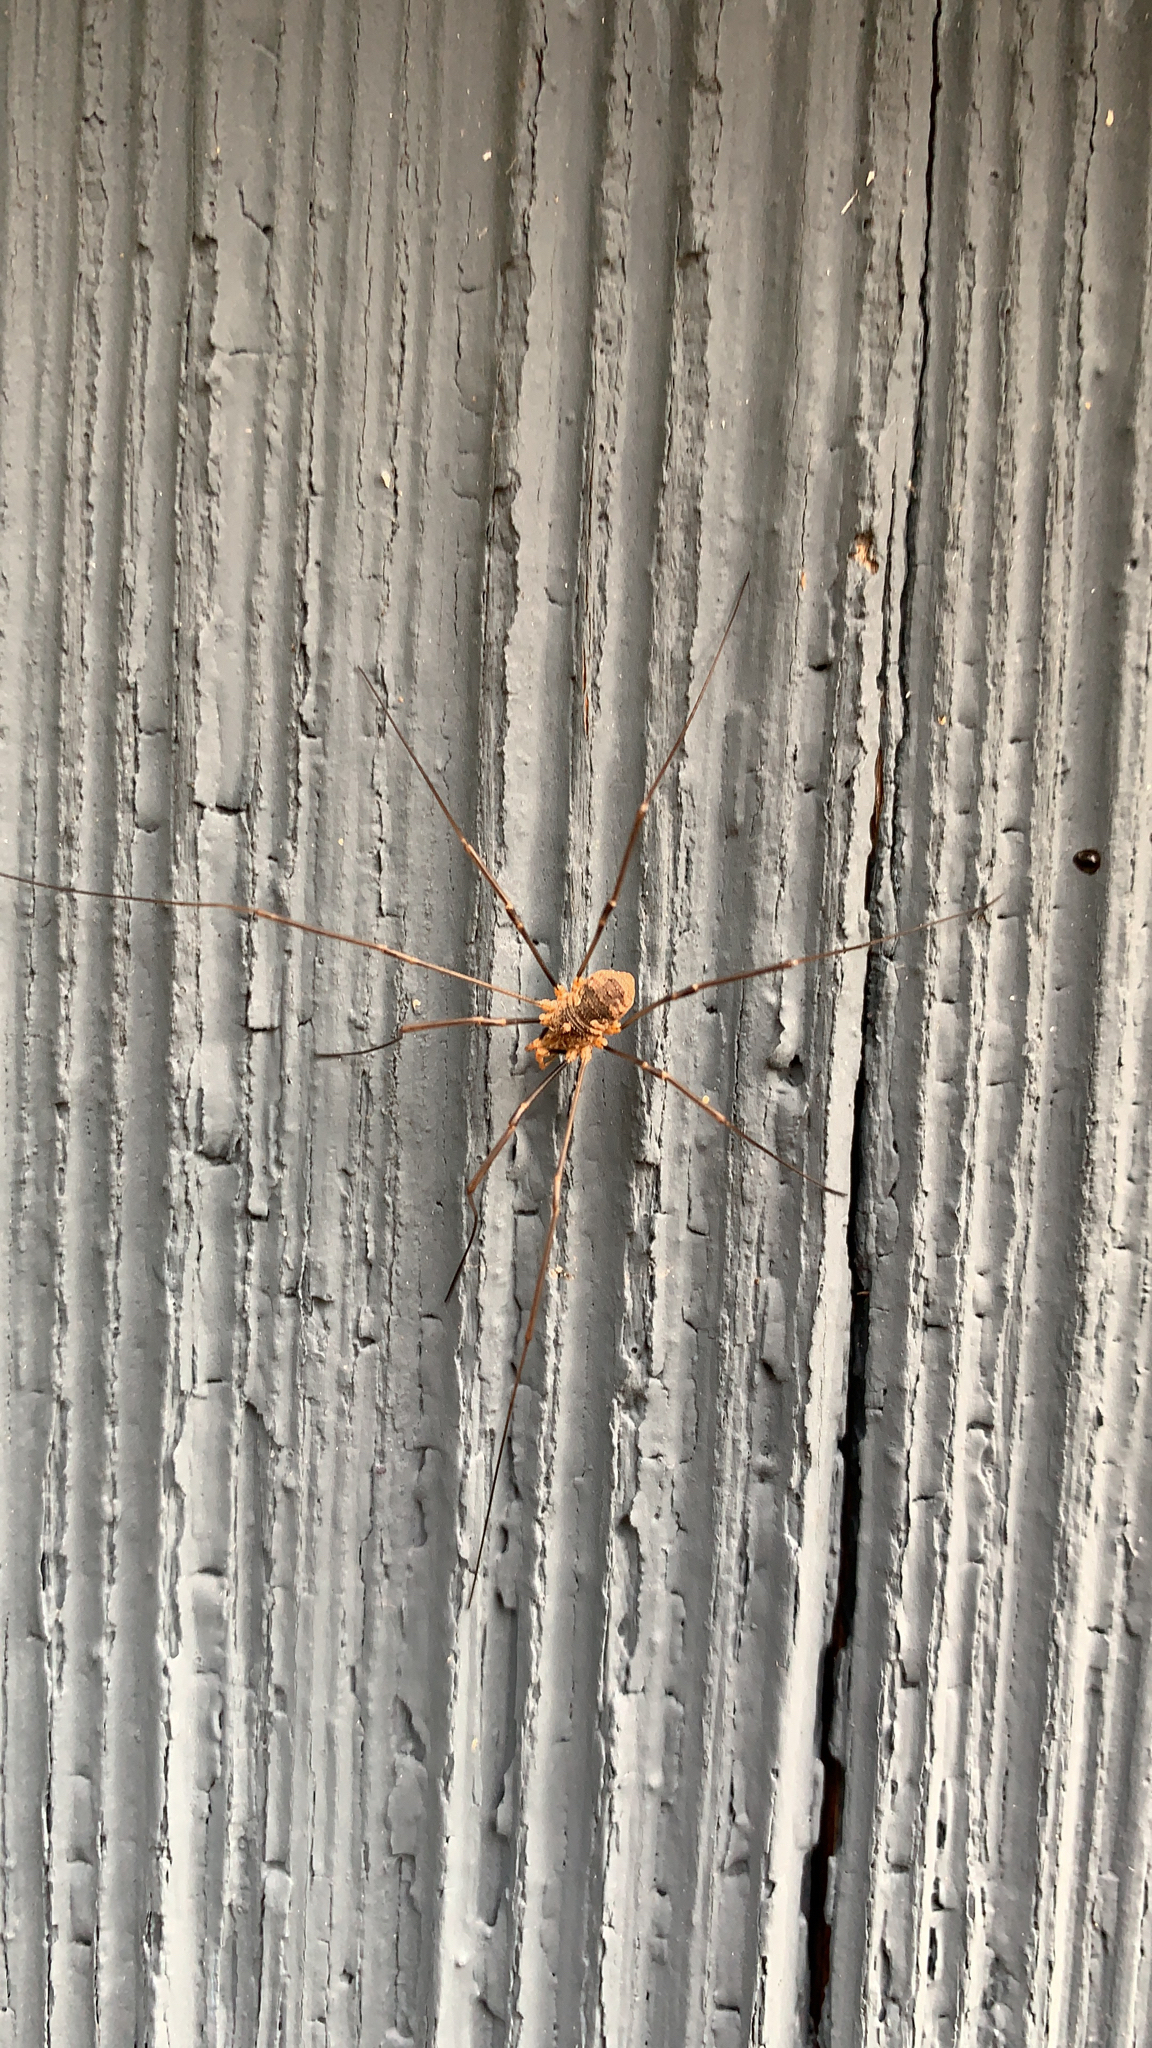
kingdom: Animalia
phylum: Arthropoda
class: Arachnida
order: Opiliones
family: Phalangiidae
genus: Phalangium
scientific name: Phalangium opilio
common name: Daddy longleg
